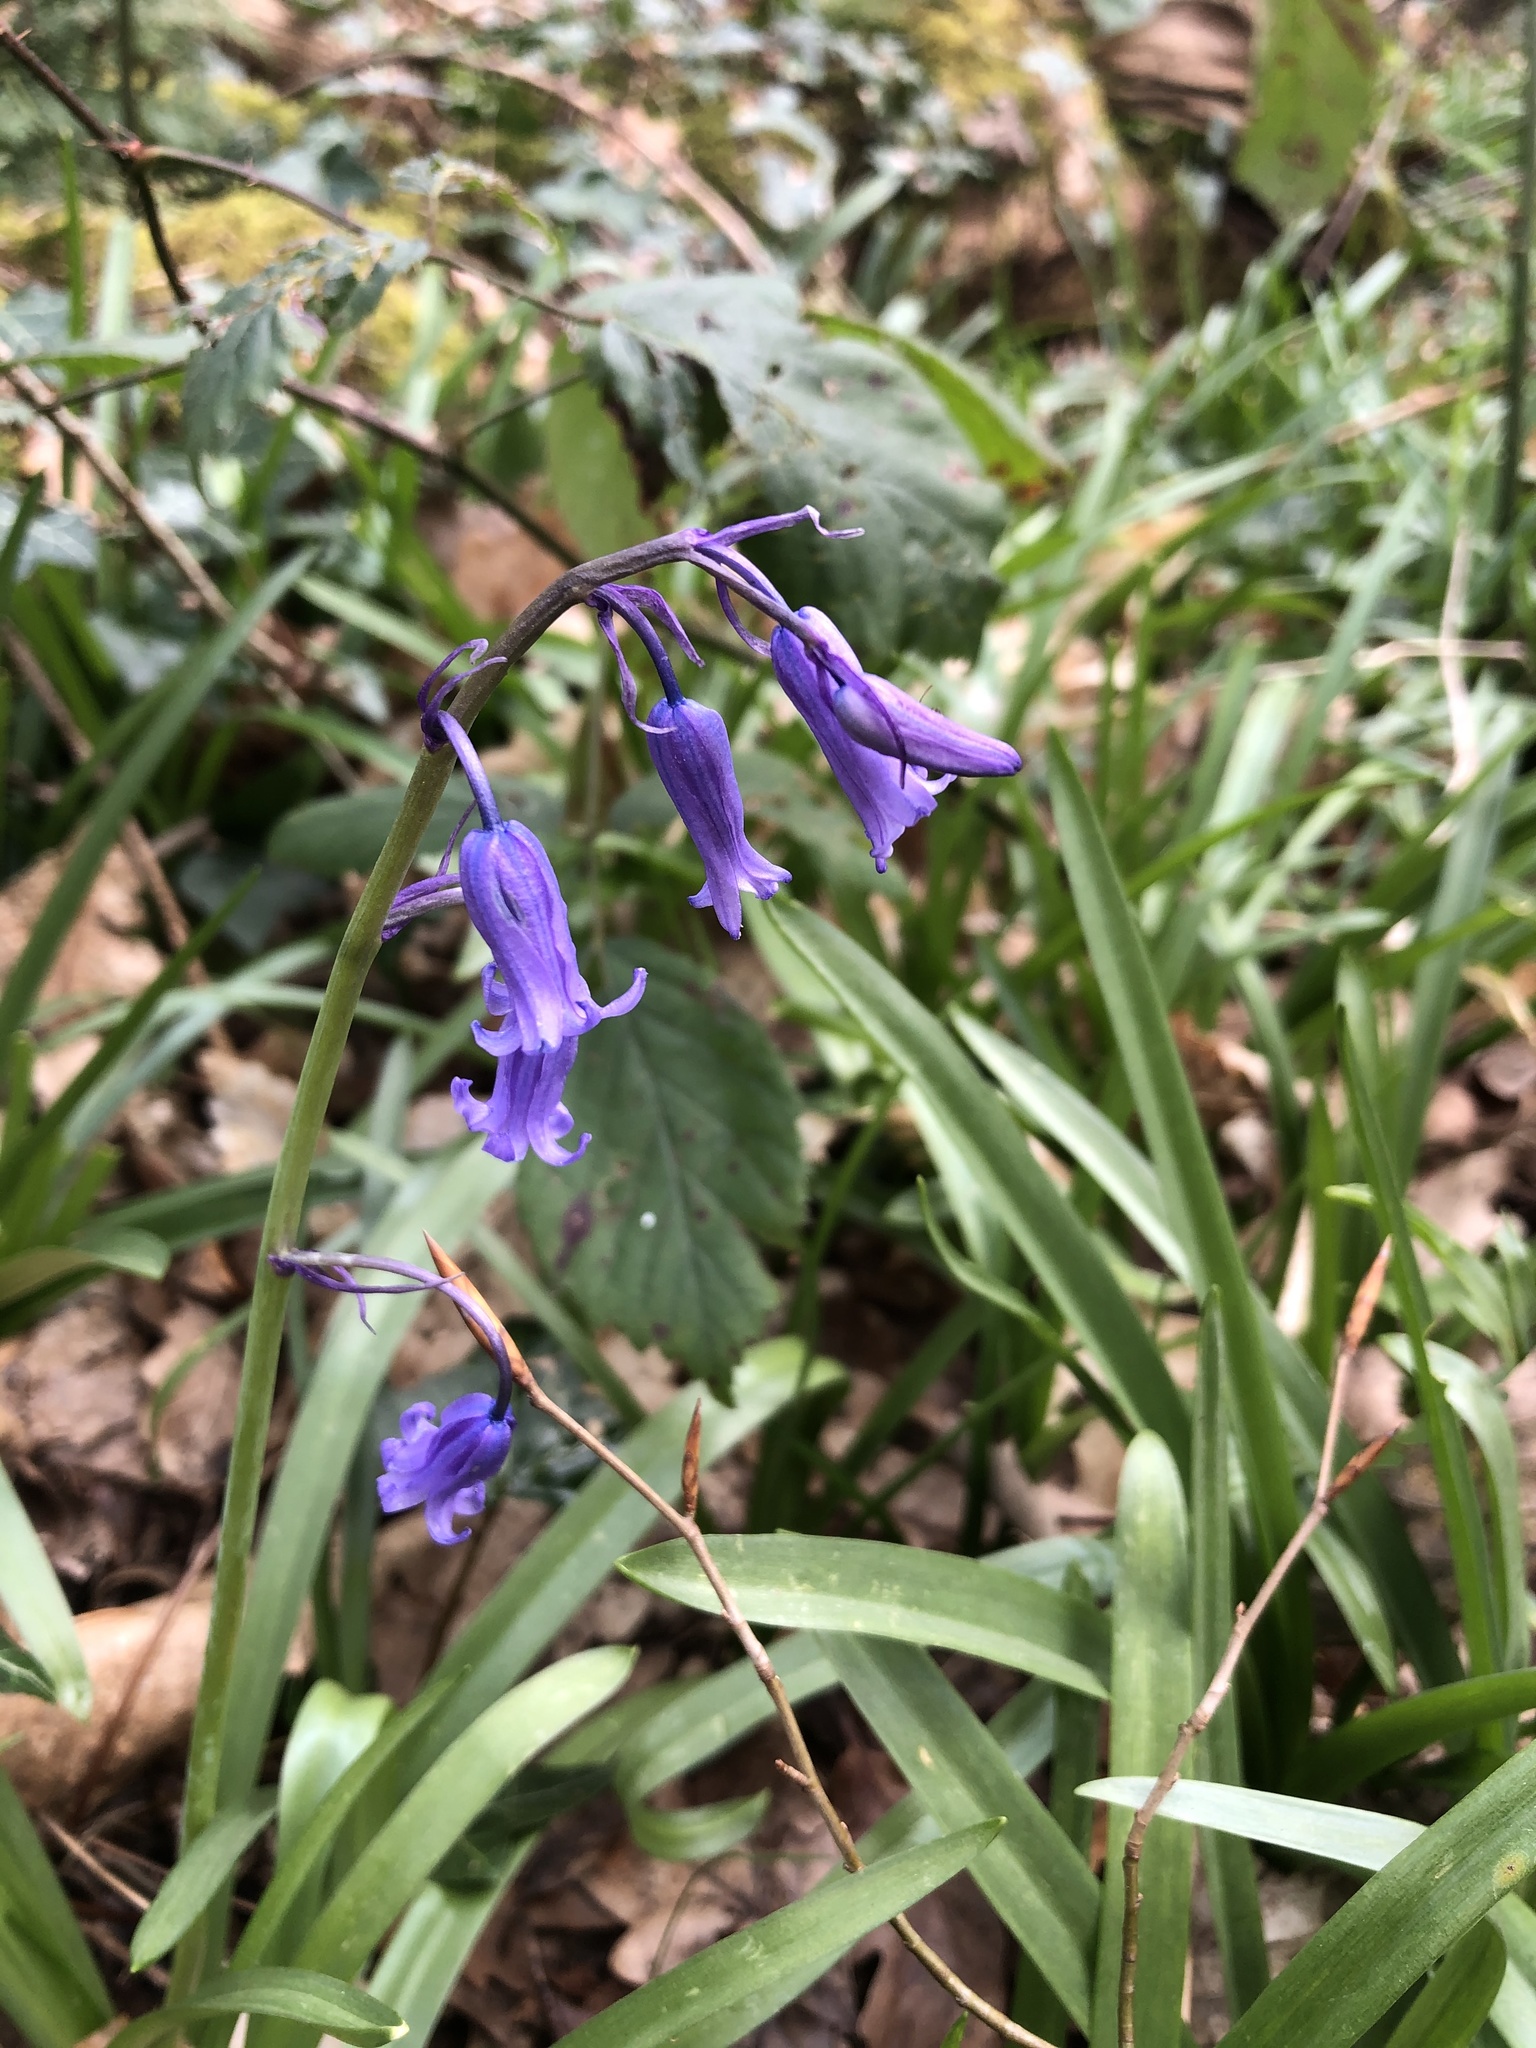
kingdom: Plantae
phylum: Tracheophyta
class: Liliopsida
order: Asparagales
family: Asparagaceae
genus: Hyacinthoides
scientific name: Hyacinthoides non-scripta
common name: Bluebell
